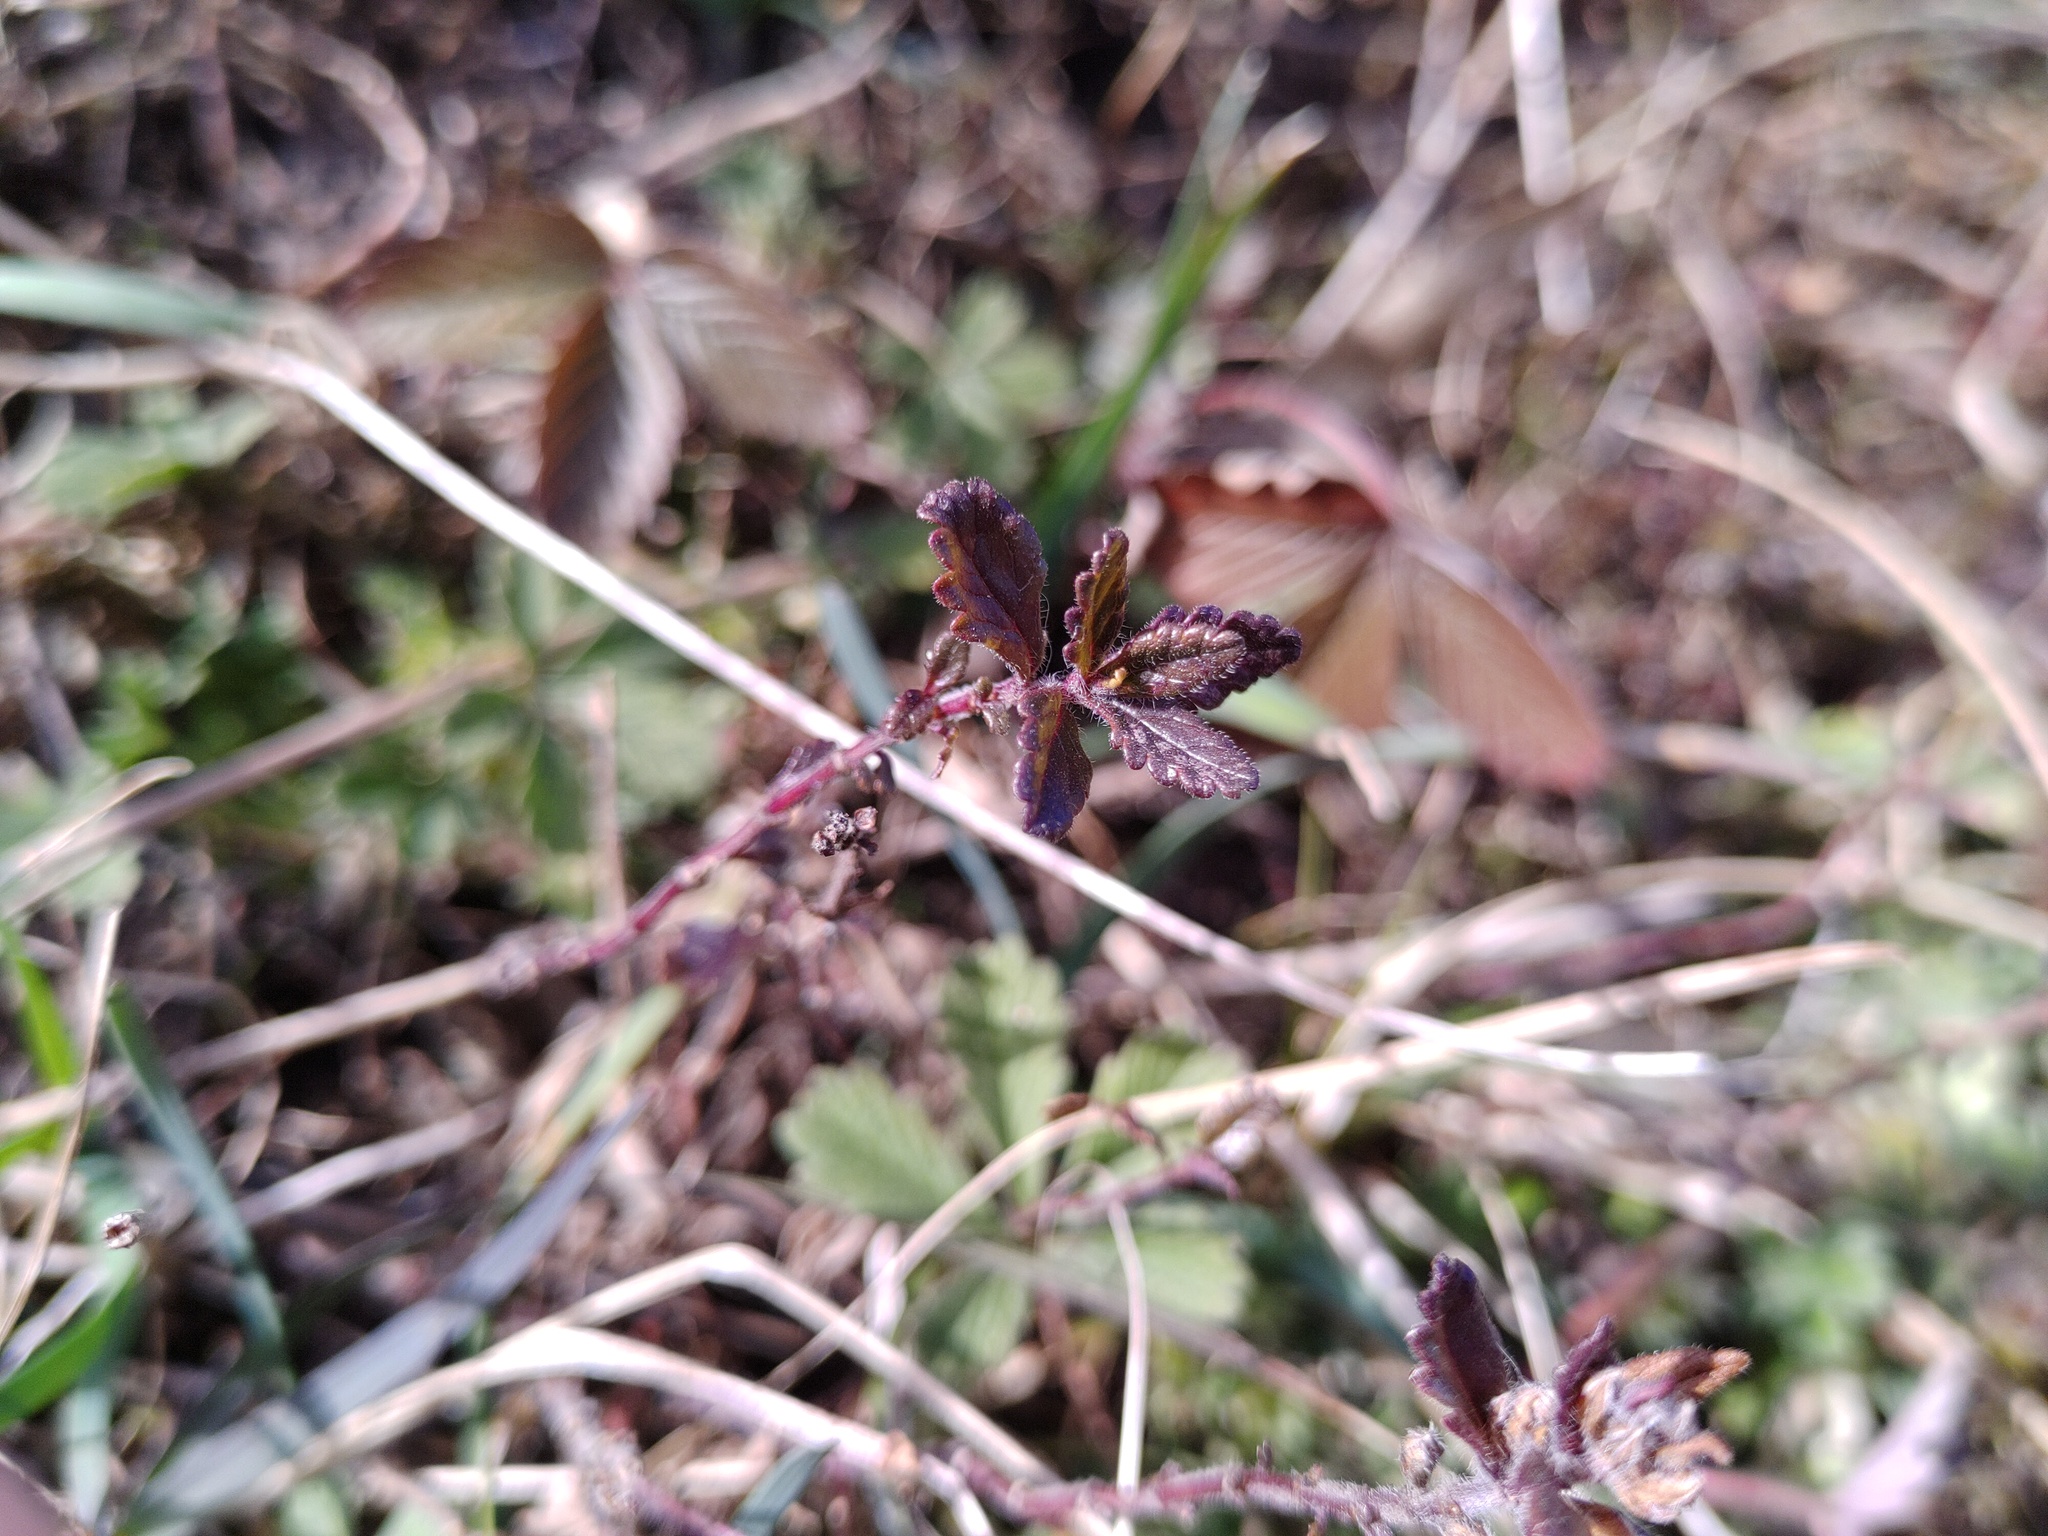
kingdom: Plantae
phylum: Tracheophyta
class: Magnoliopsida
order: Lamiales
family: Lamiaceae
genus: Teucrium
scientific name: Teucrium chamaedrys
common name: Wall germander
